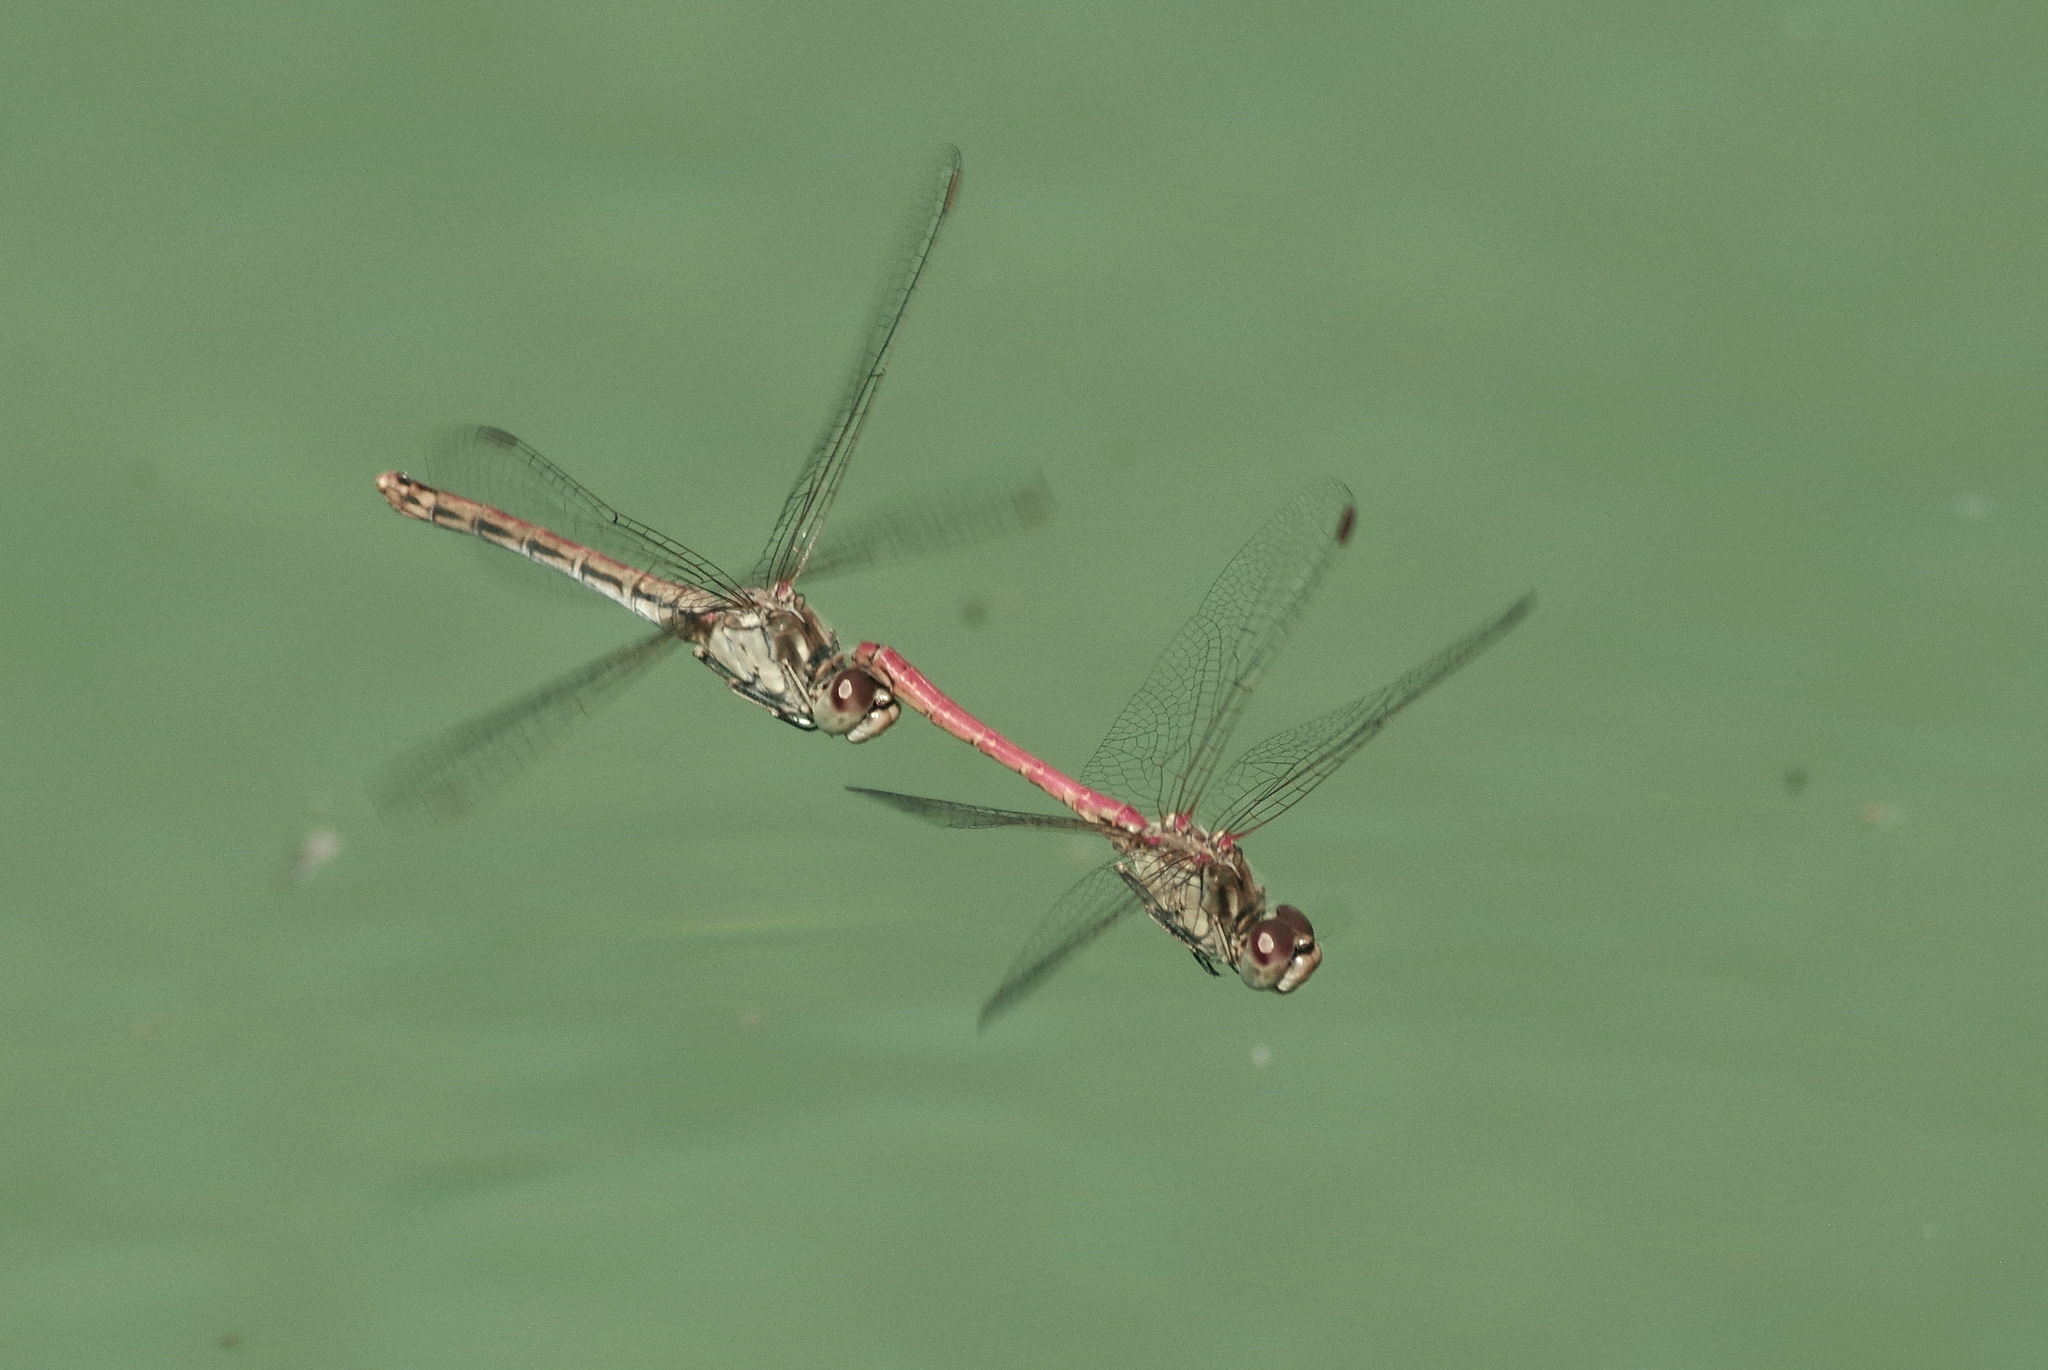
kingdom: Animalia
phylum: Arthropoda
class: Insecta
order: Odonata
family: Libellulidae
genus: Sympetrum
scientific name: Sympetrum sinaiticum
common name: Desert darter
